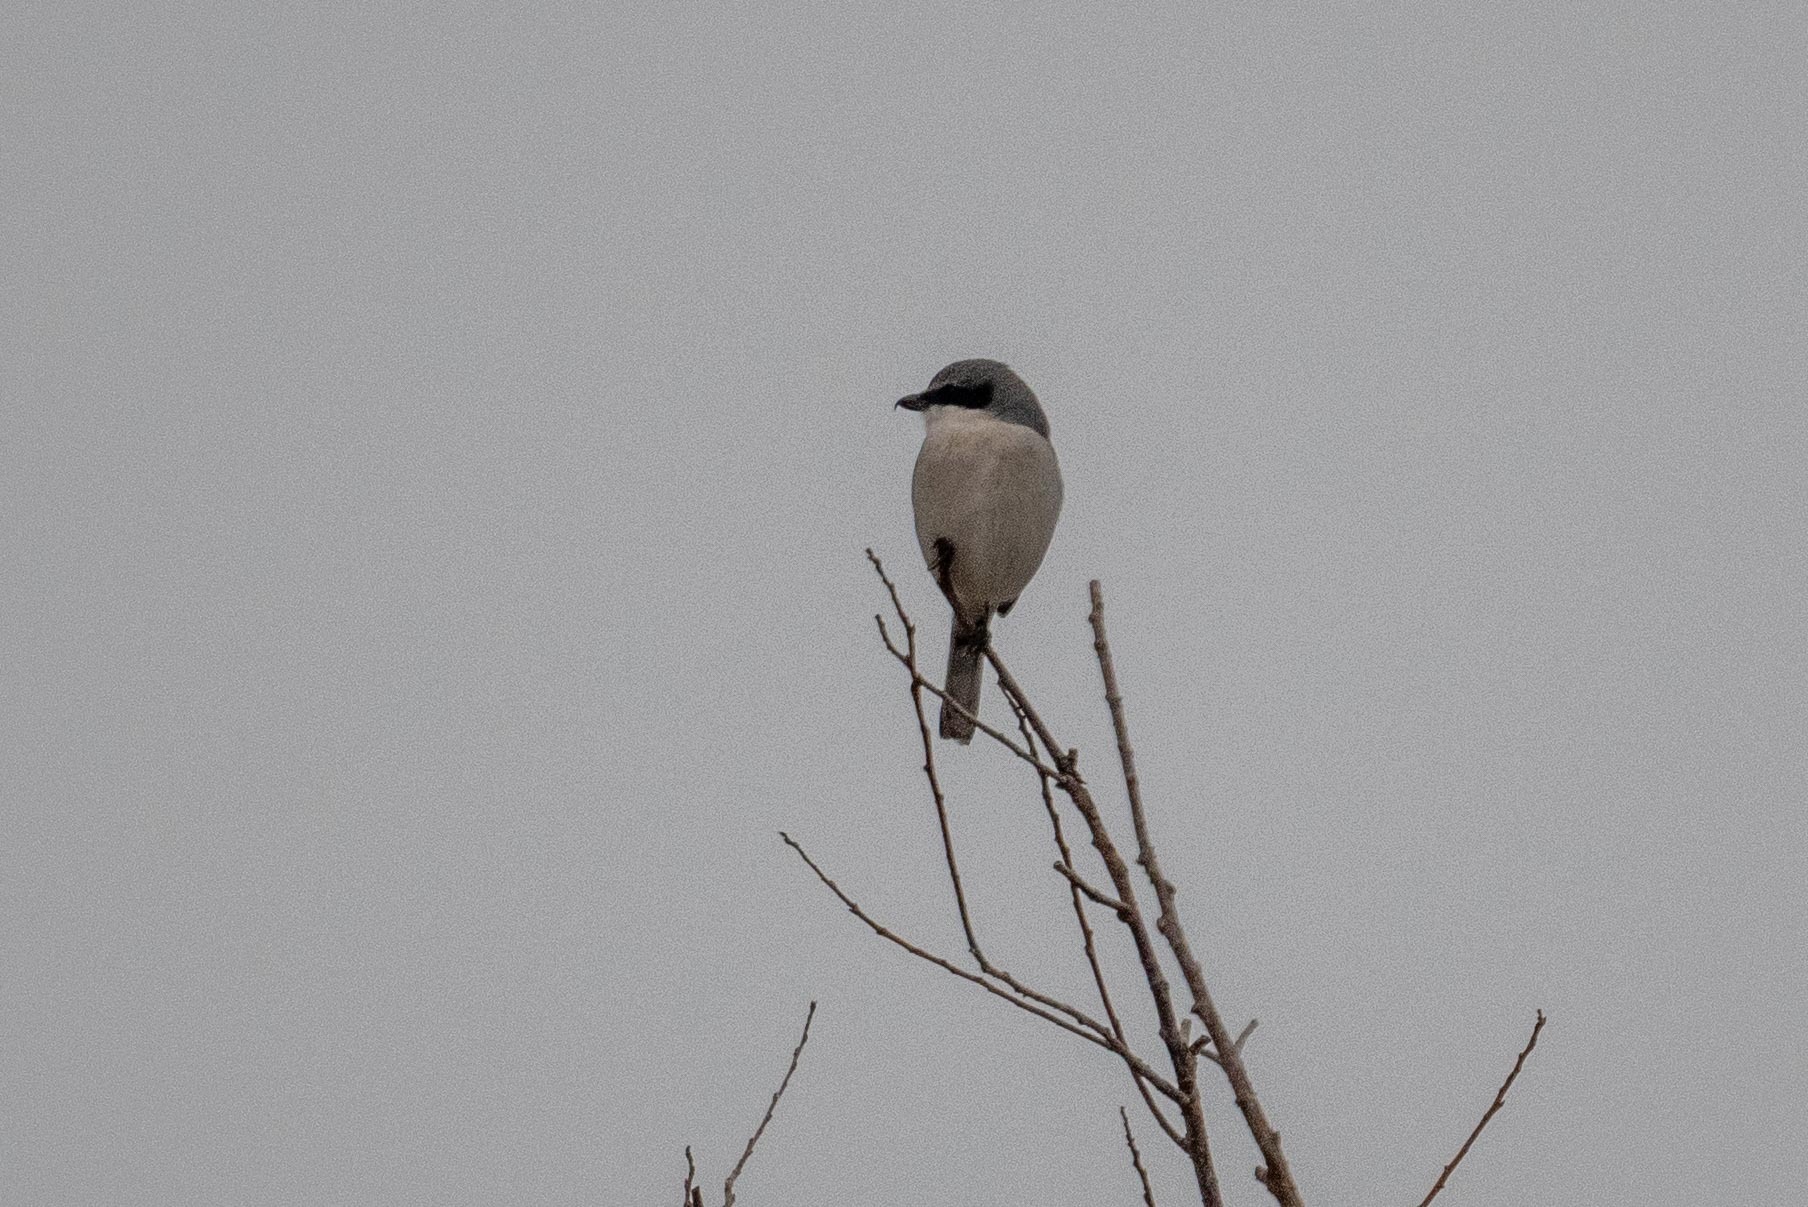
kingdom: Animalia
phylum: Chordata
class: Aves
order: Passeriformes
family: Laniidae
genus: Lanius
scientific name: Lanius ludovicianus
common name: Loggerhead shrike
